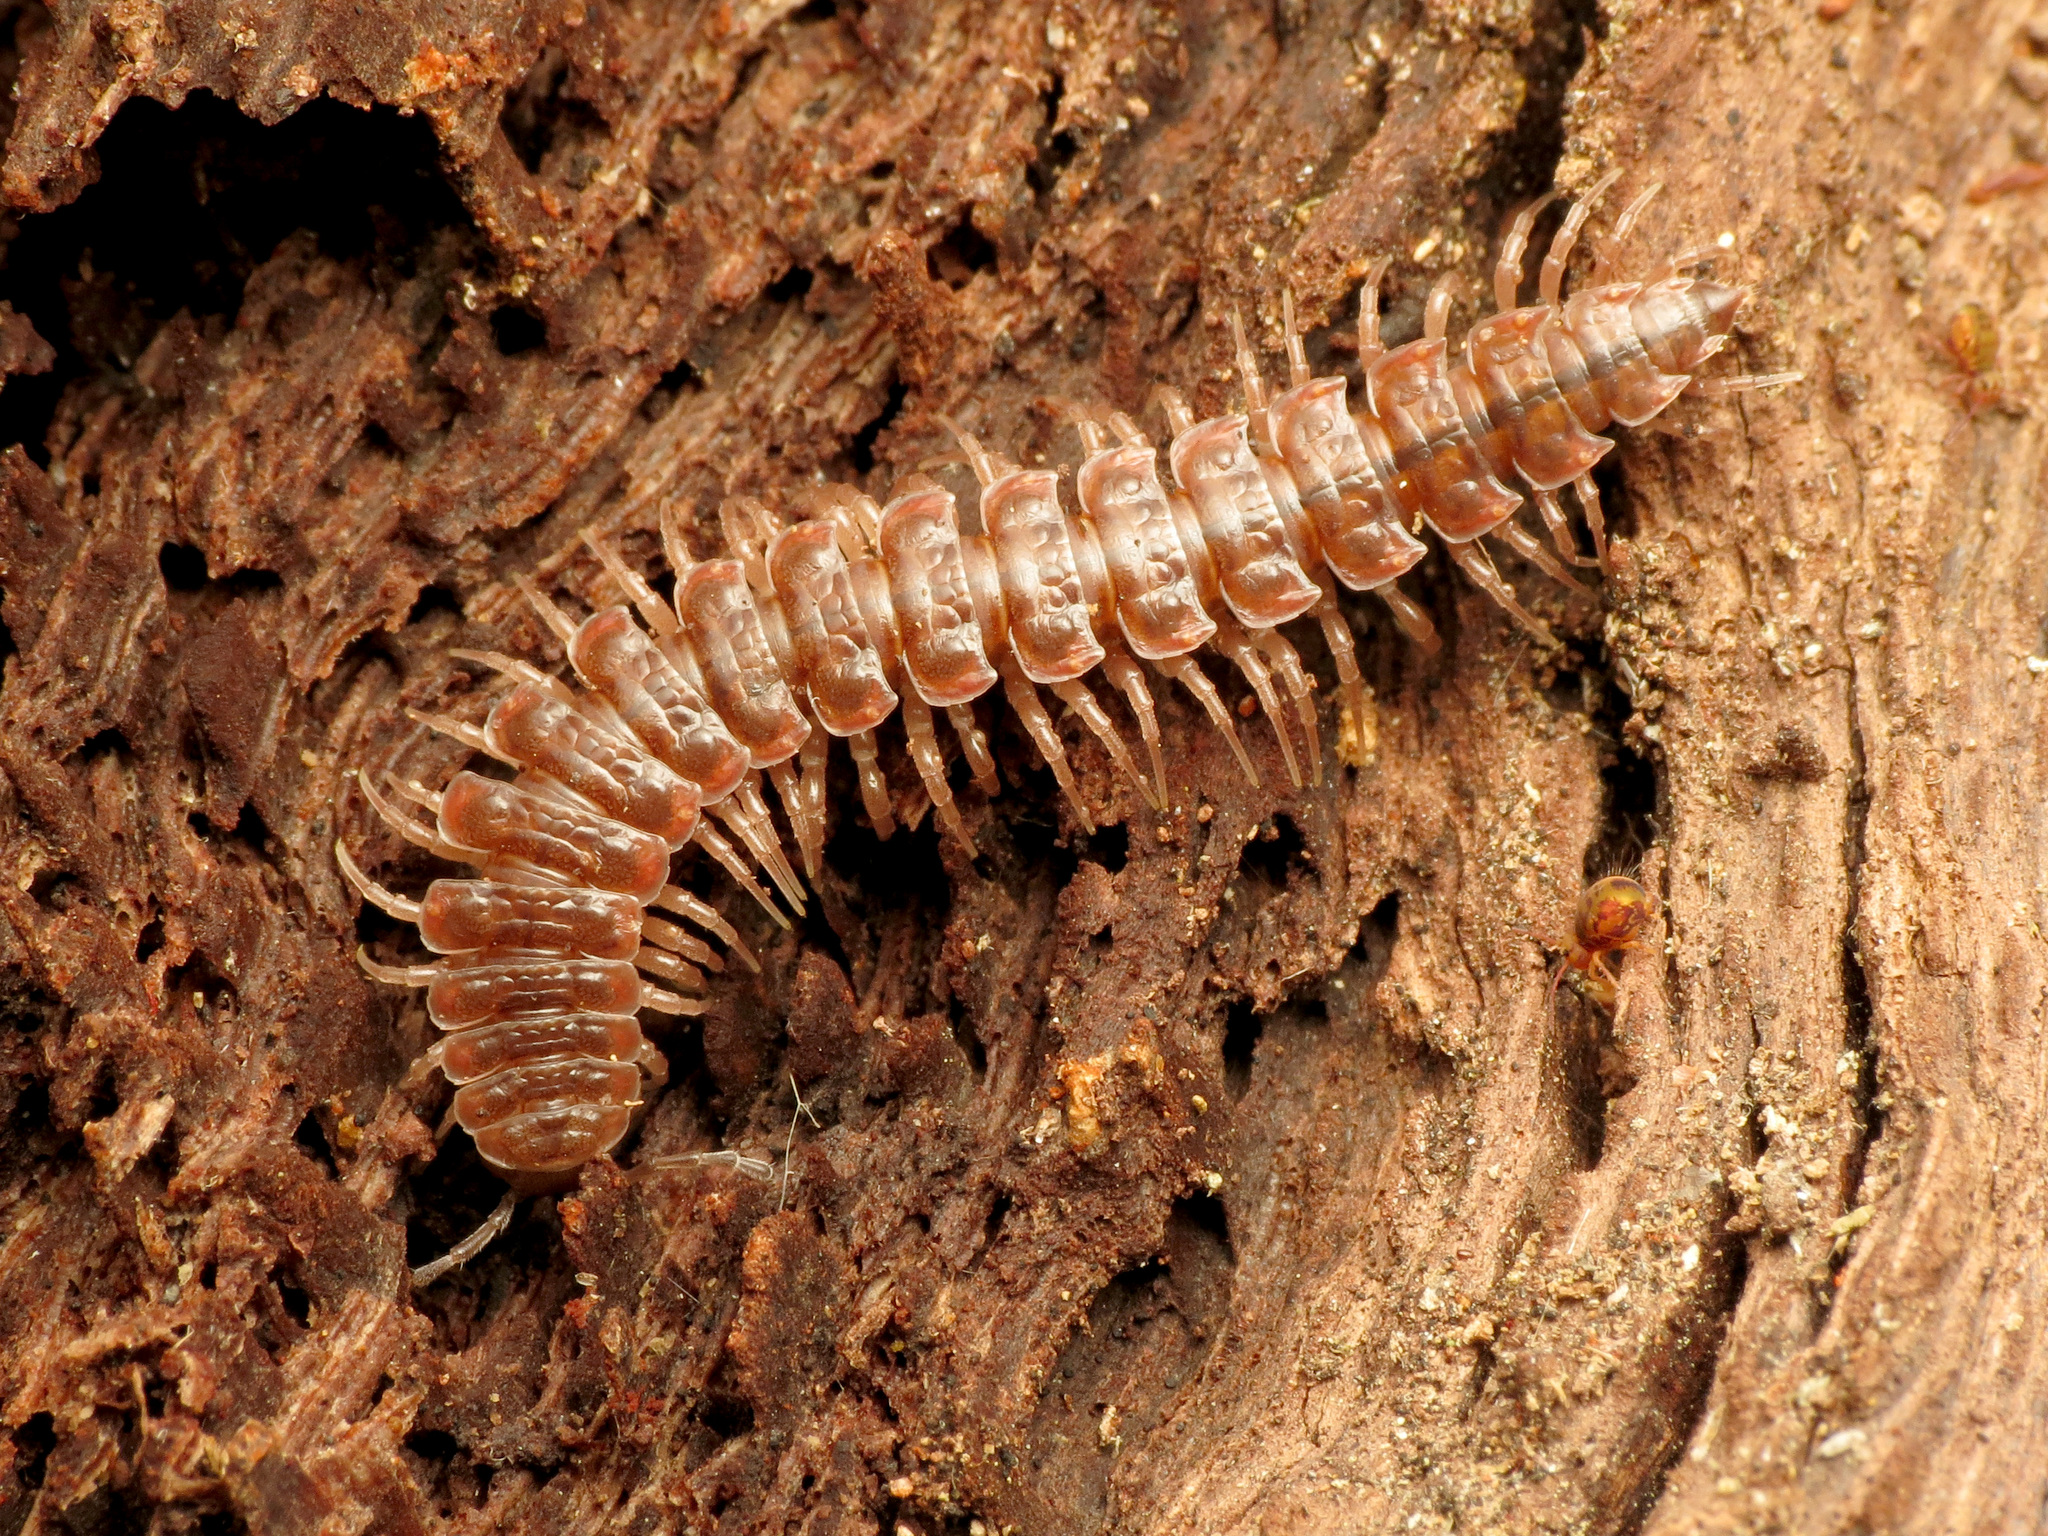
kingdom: Animalia
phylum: Arthropoda
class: Diplopoda
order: Polydesmida
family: Polydesmidae
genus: Pseudopolydesmus
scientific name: Pseudopolydesmus serratus
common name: Common pink flat-back millipede
